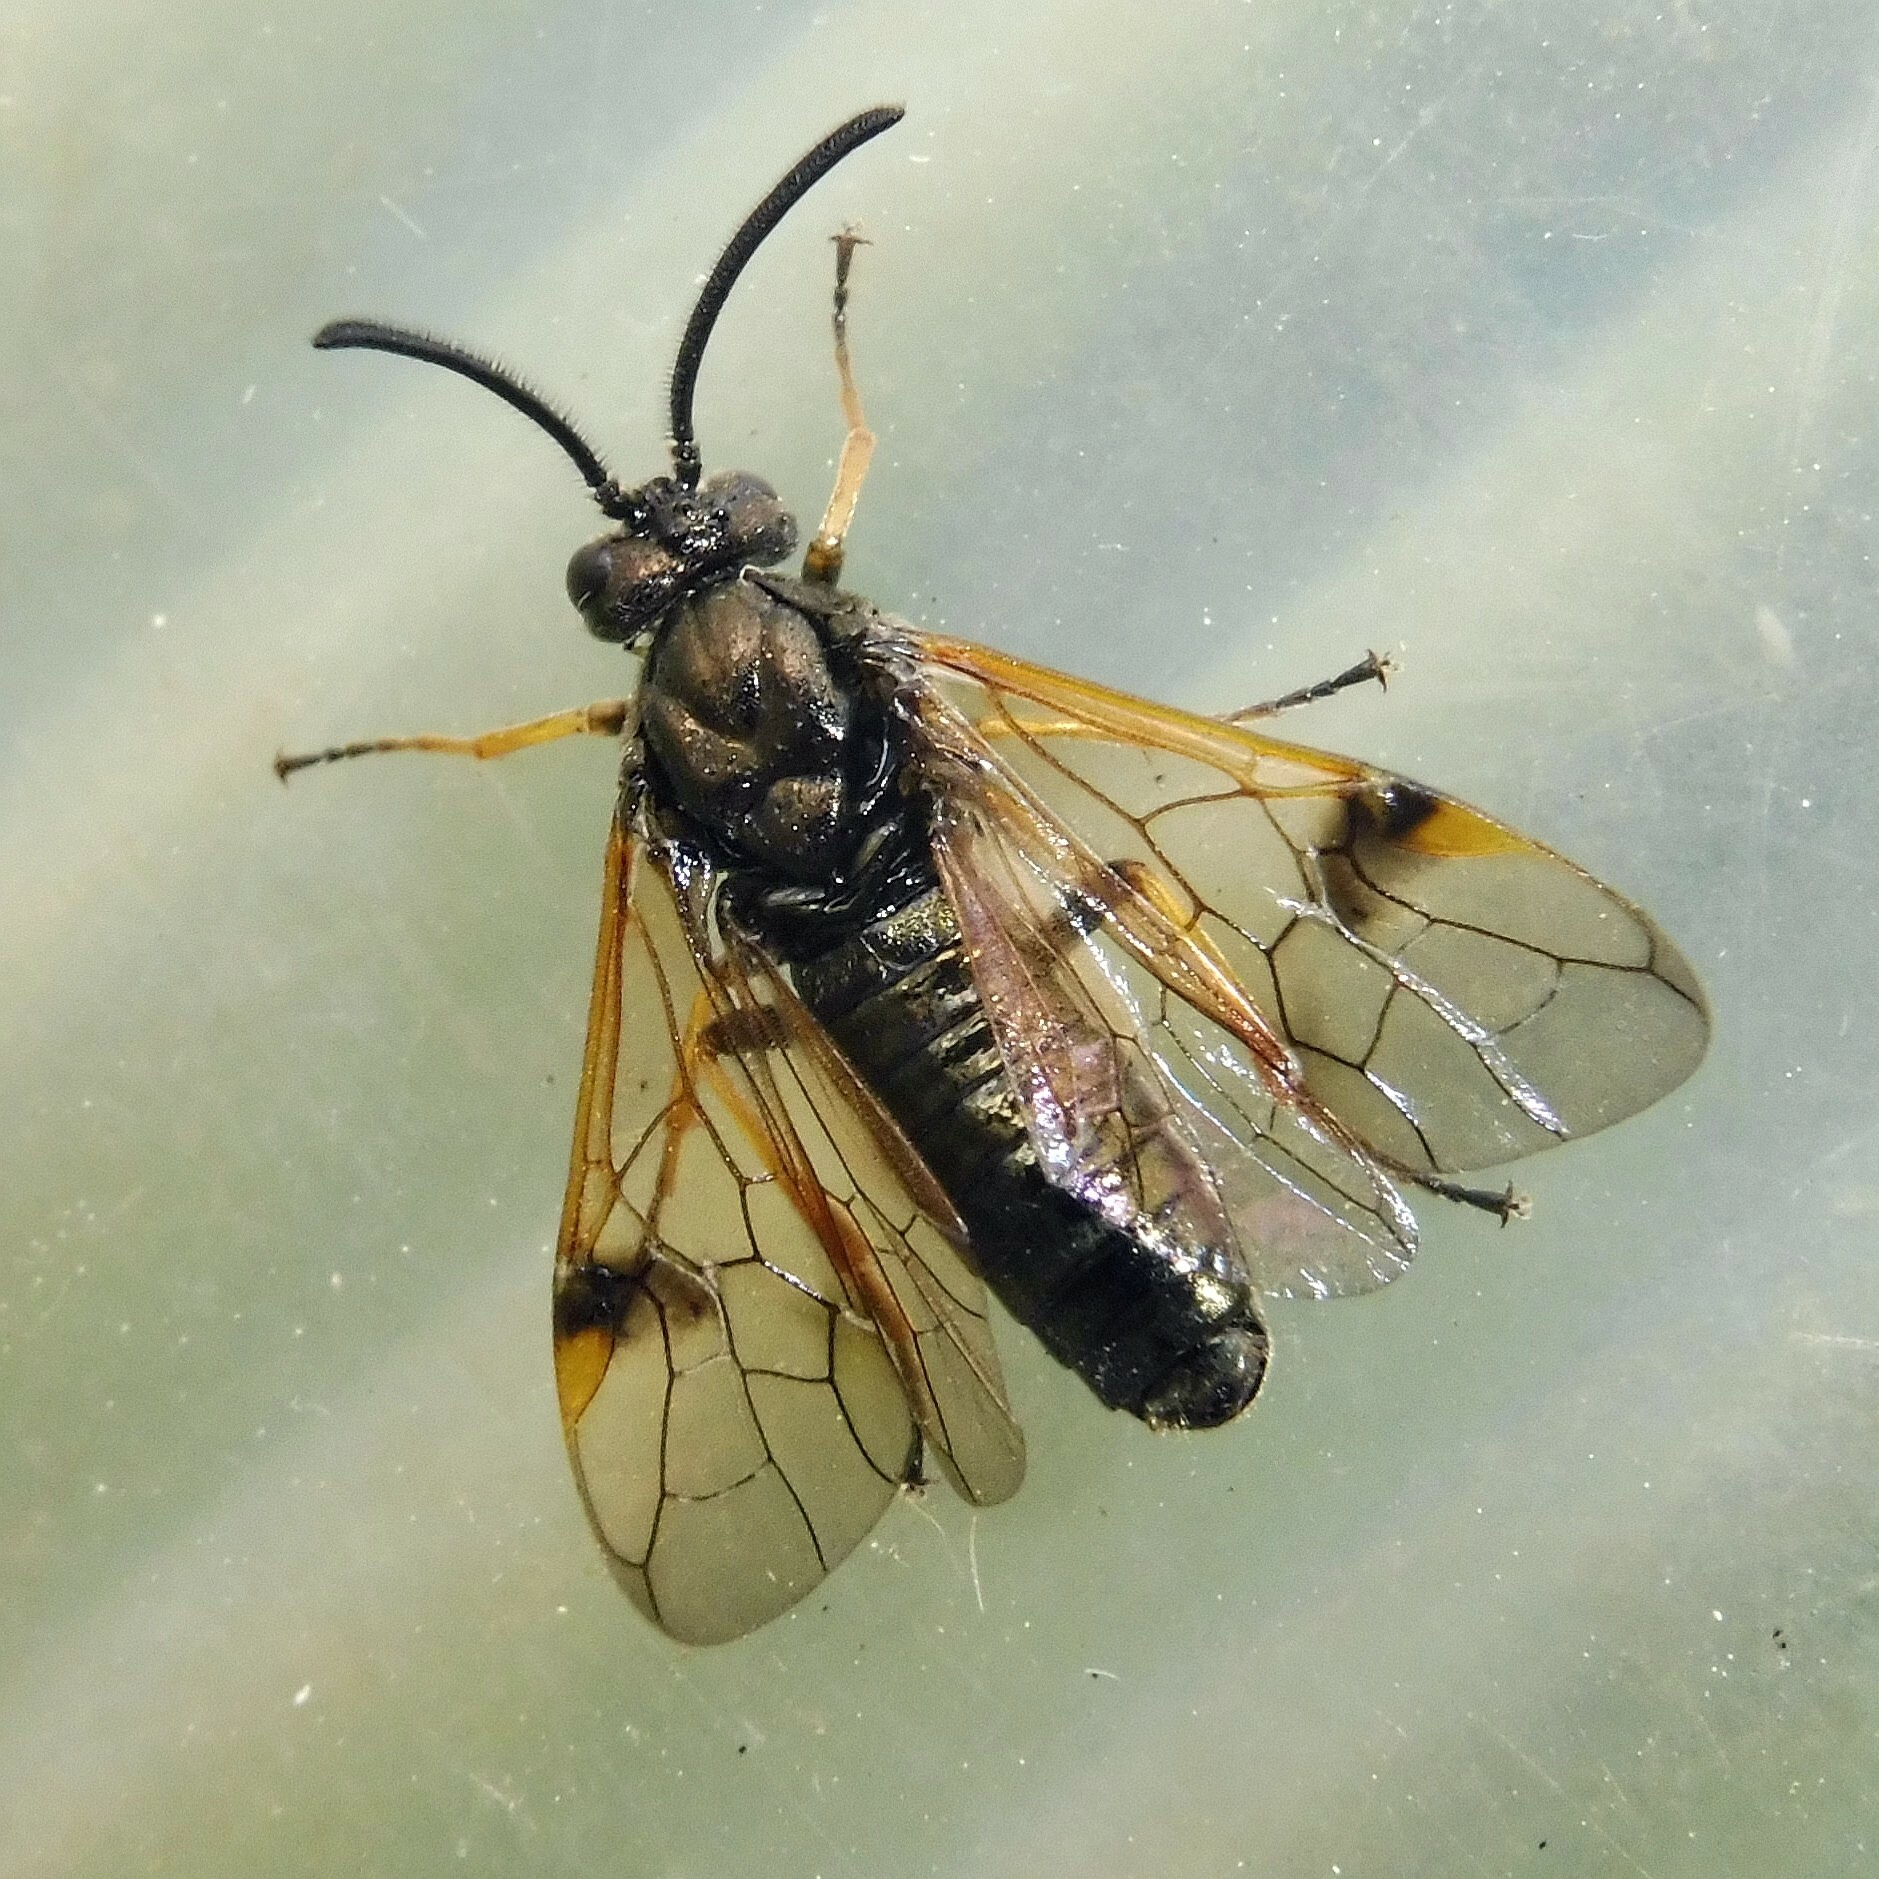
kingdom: Animalia
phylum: Arthropoda
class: Insecta
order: Hymenoptera
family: Argidae
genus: Arge
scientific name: Arge ustulata
